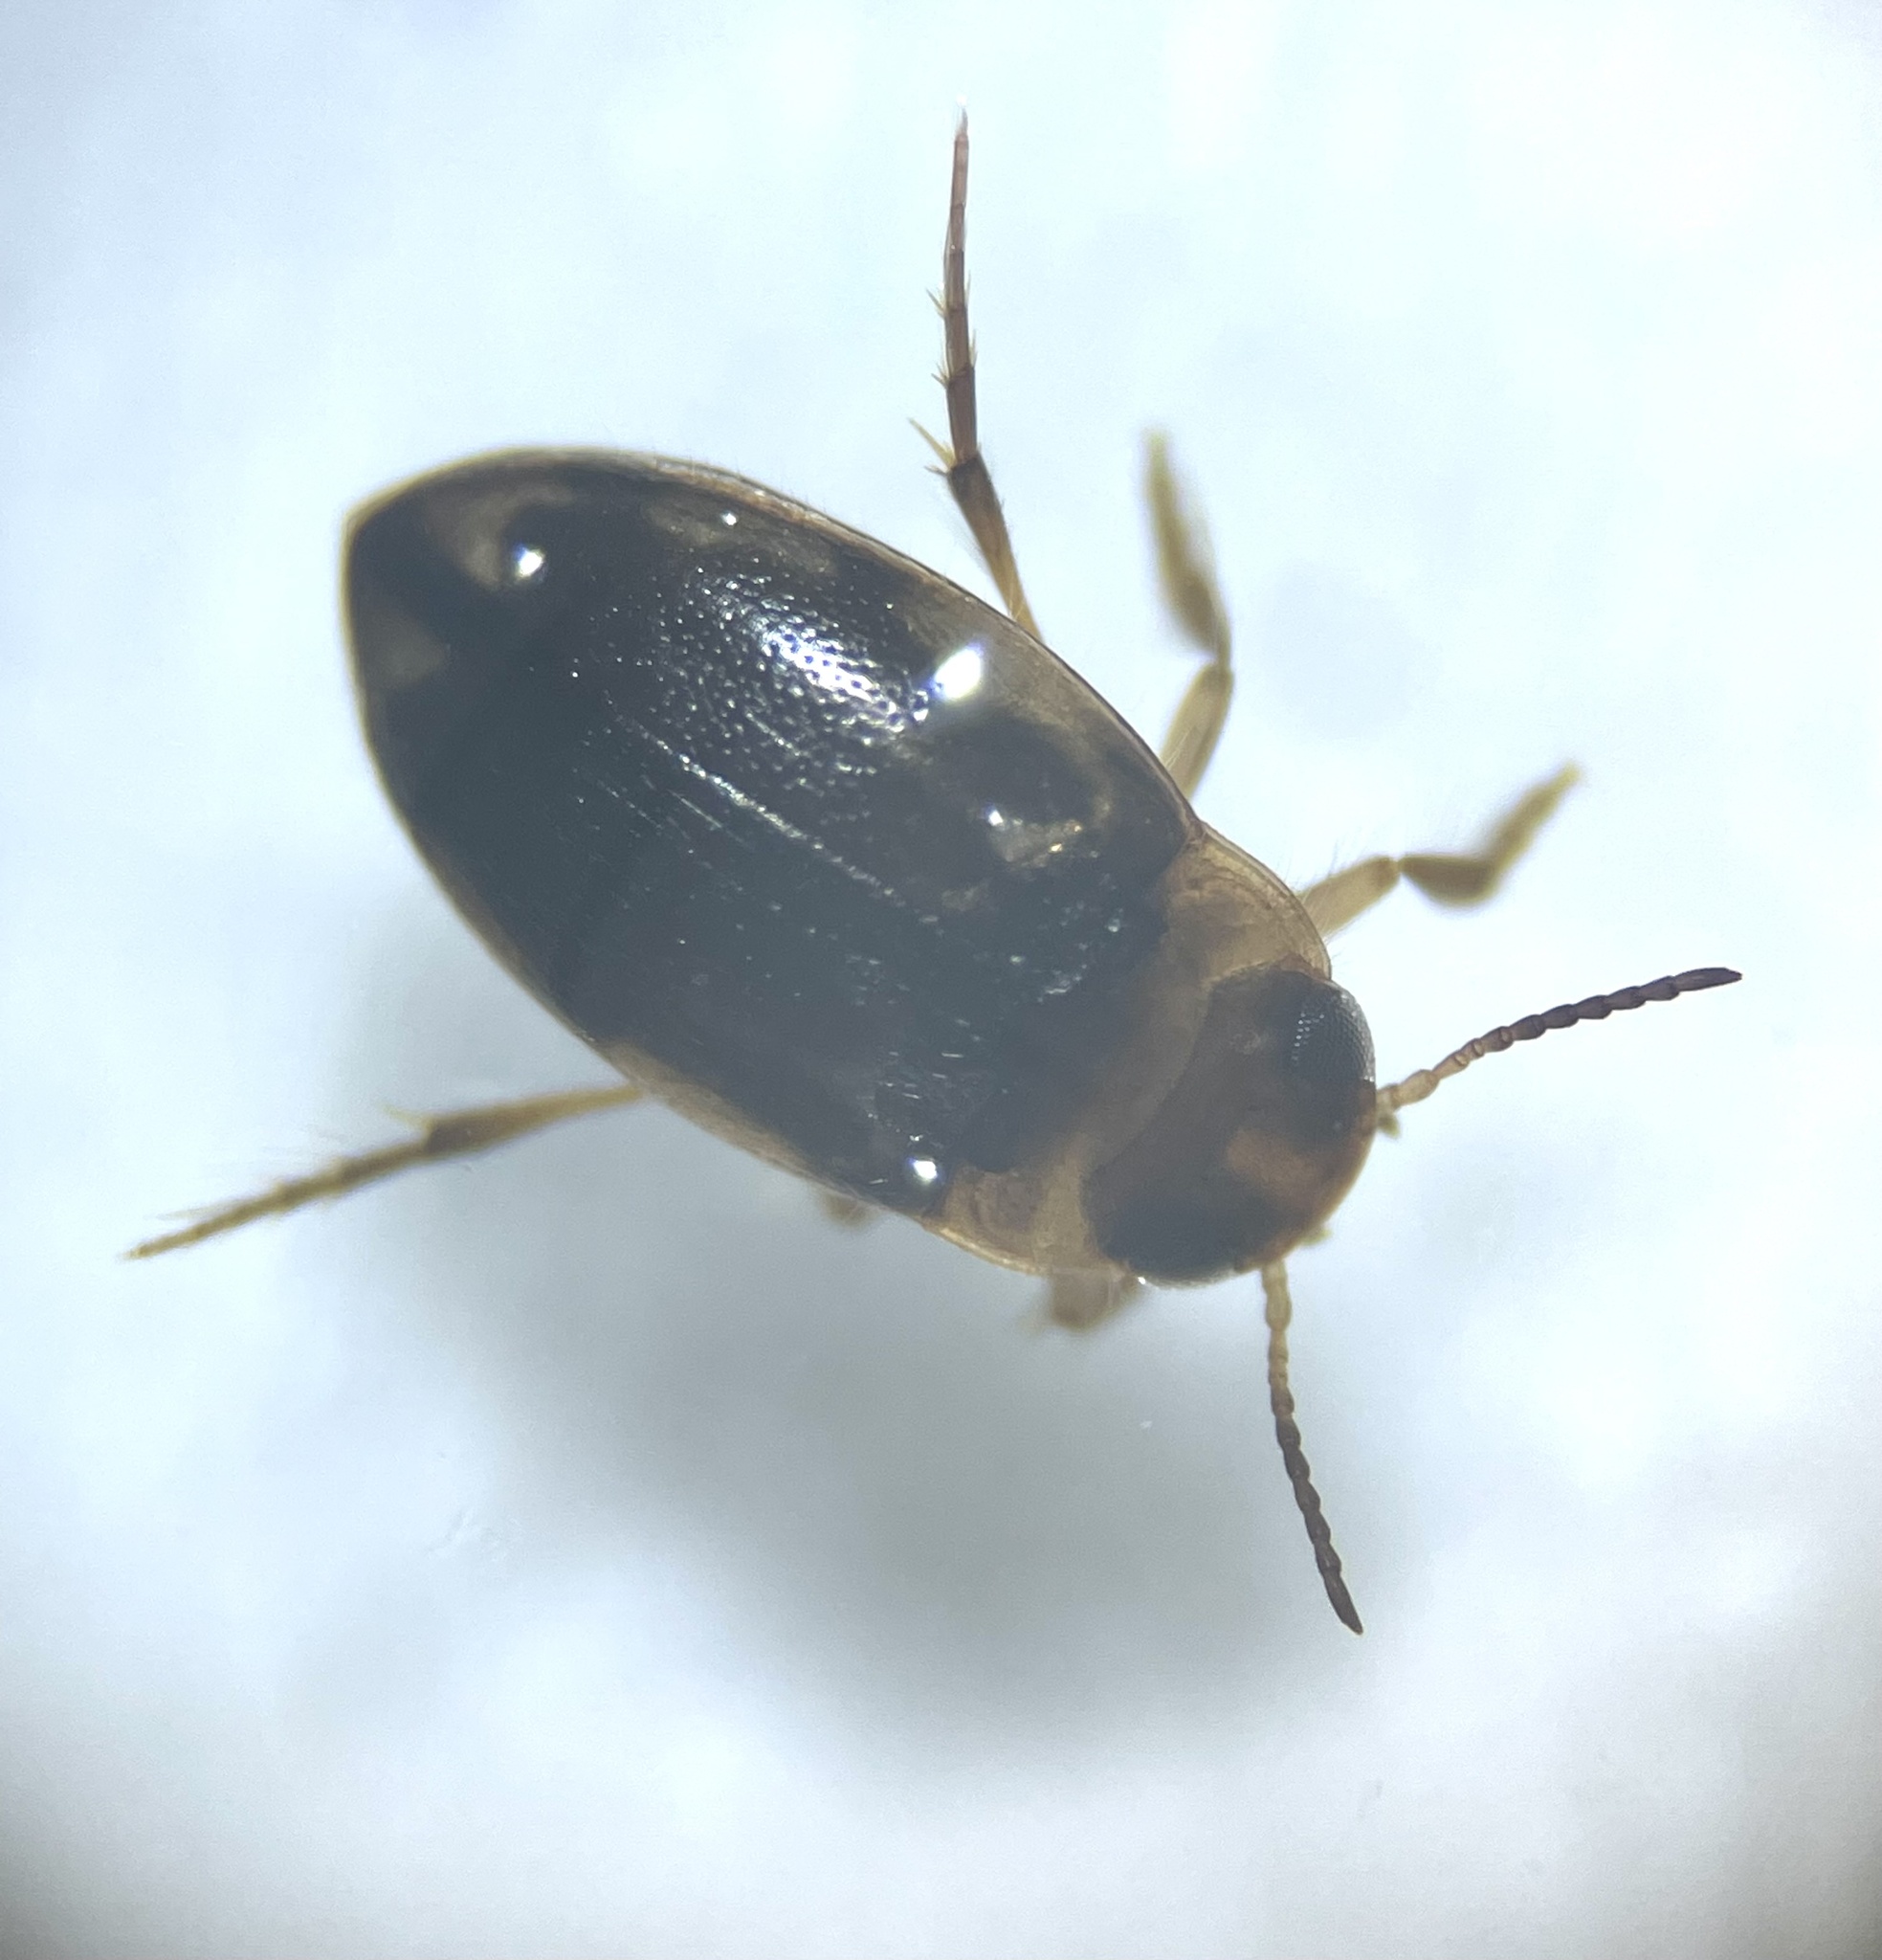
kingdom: Animalia
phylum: Arthropoda
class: Insecta
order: Coleoptera
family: Dytiscidae
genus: Hydroglyphus
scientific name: Hydroglyphus japonicus
